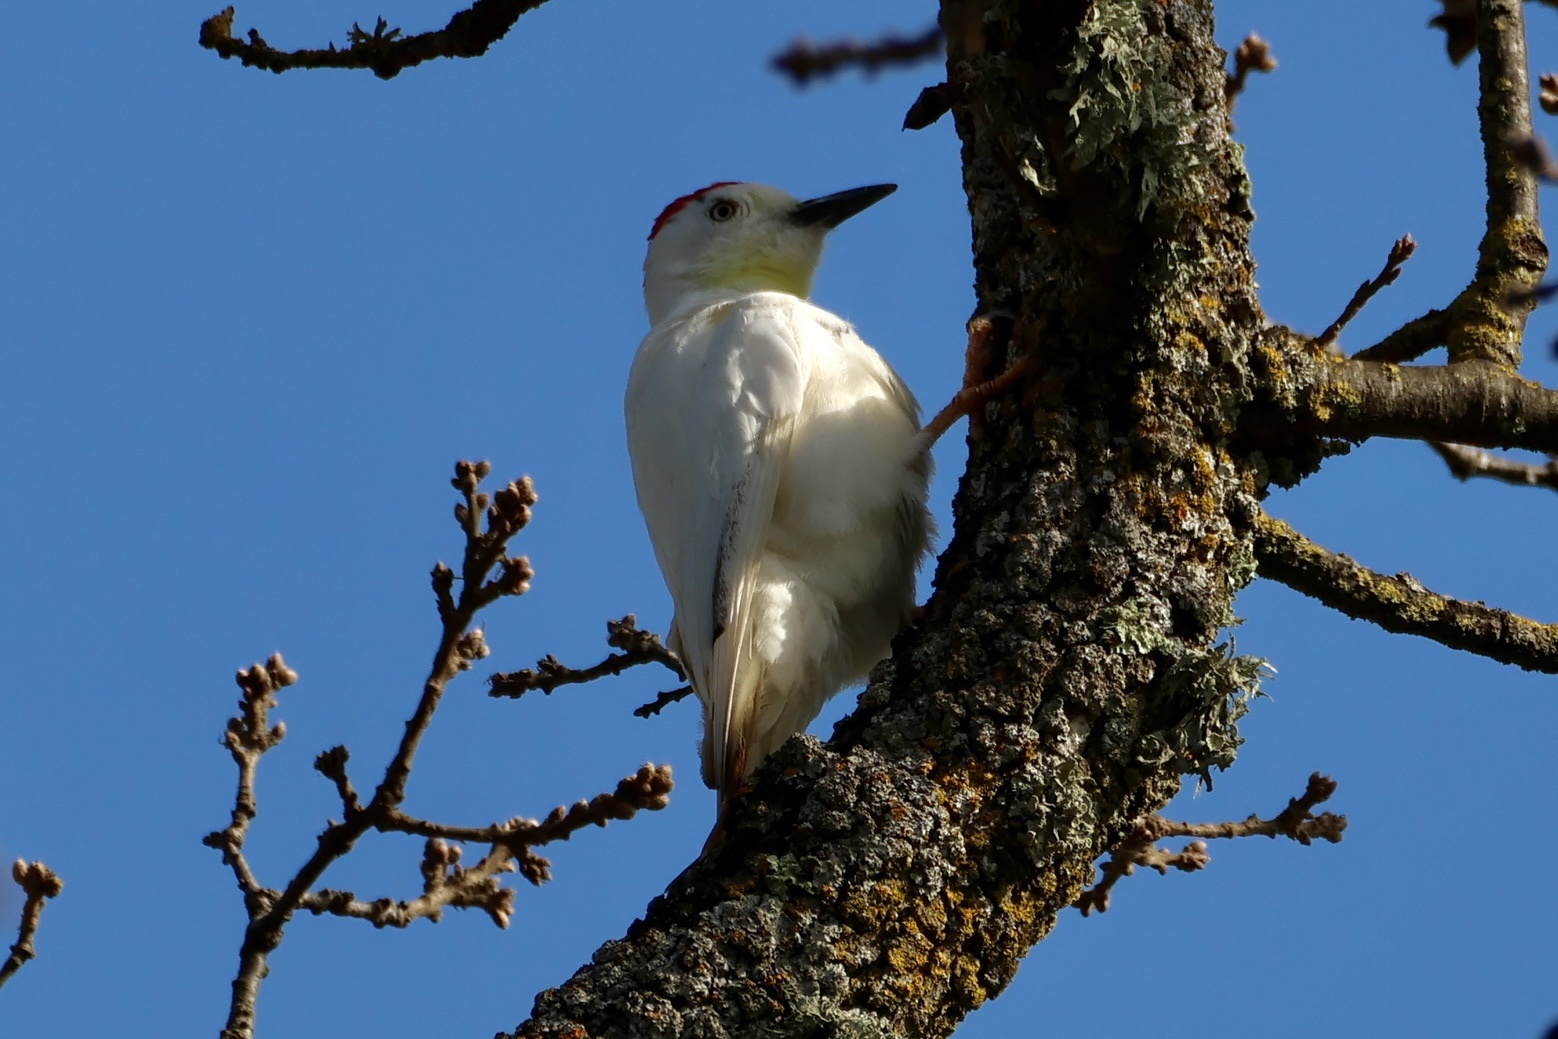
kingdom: Animalia
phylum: Chordata
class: Aves
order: Piciformes
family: Picidae
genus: Melanerpes
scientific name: Melanerpes formicivorus
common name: Acorn woodpecker
